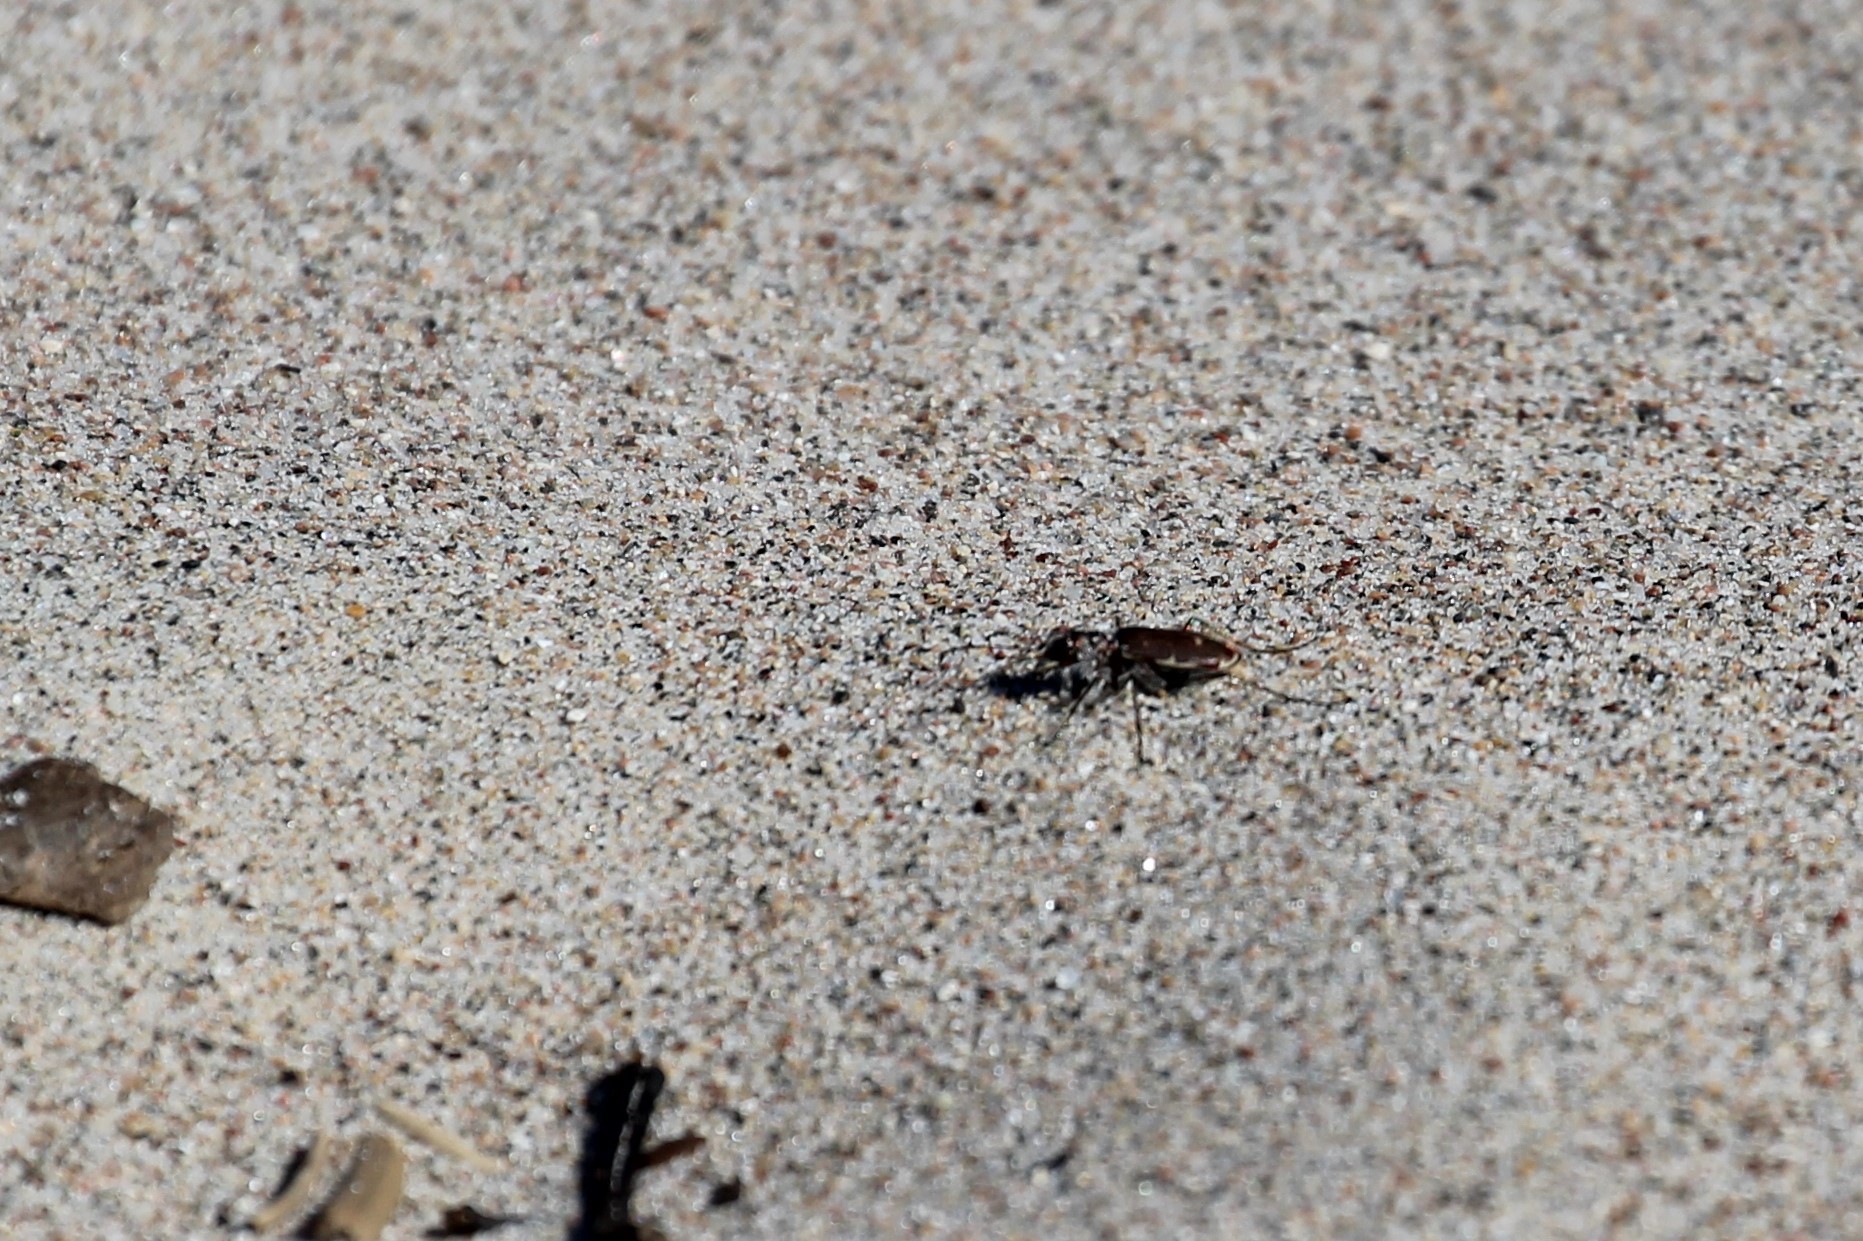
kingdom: Animalia
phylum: Arthropoda
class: Insecta
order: Coleoptera
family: Carabidae
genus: Cicindela
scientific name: Cicindela hirticollis
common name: Hairy-necked tiger beetle
